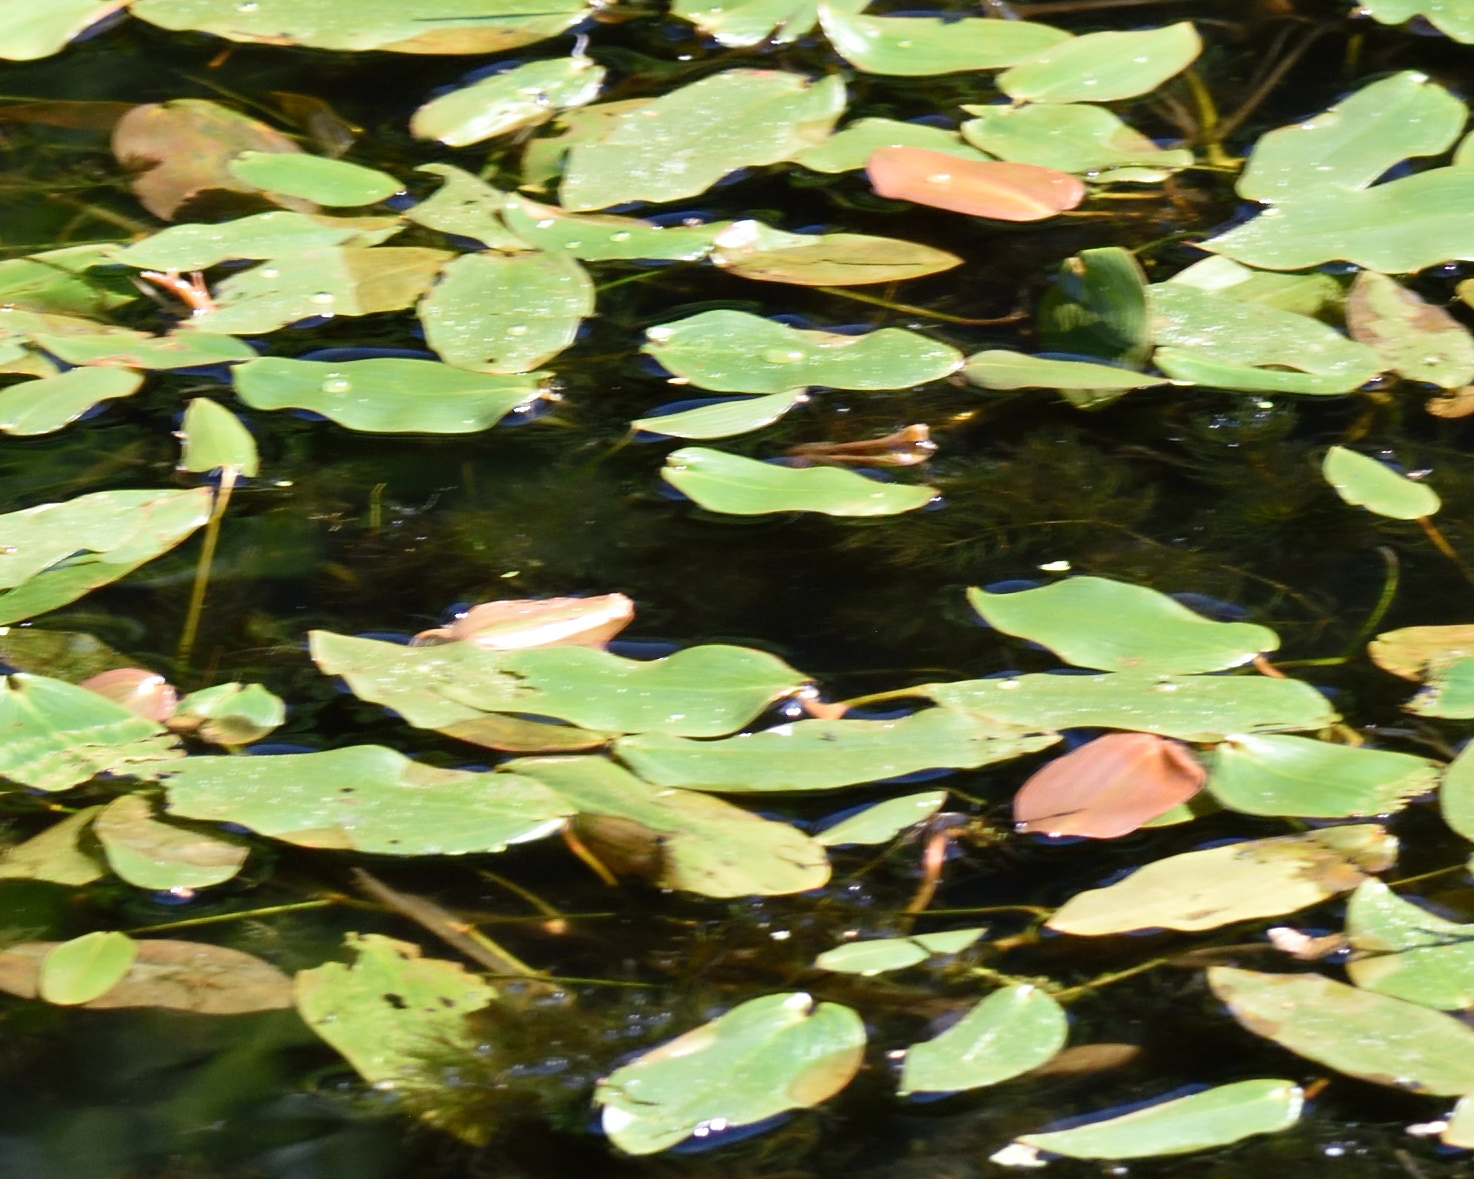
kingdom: Plantae
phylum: Tracheophyta
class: Liliopsida
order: Alismatales
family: Potamogetonaceae
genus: Potamogeton
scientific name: Potamogeton natans
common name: Broad-leaved pondweed
